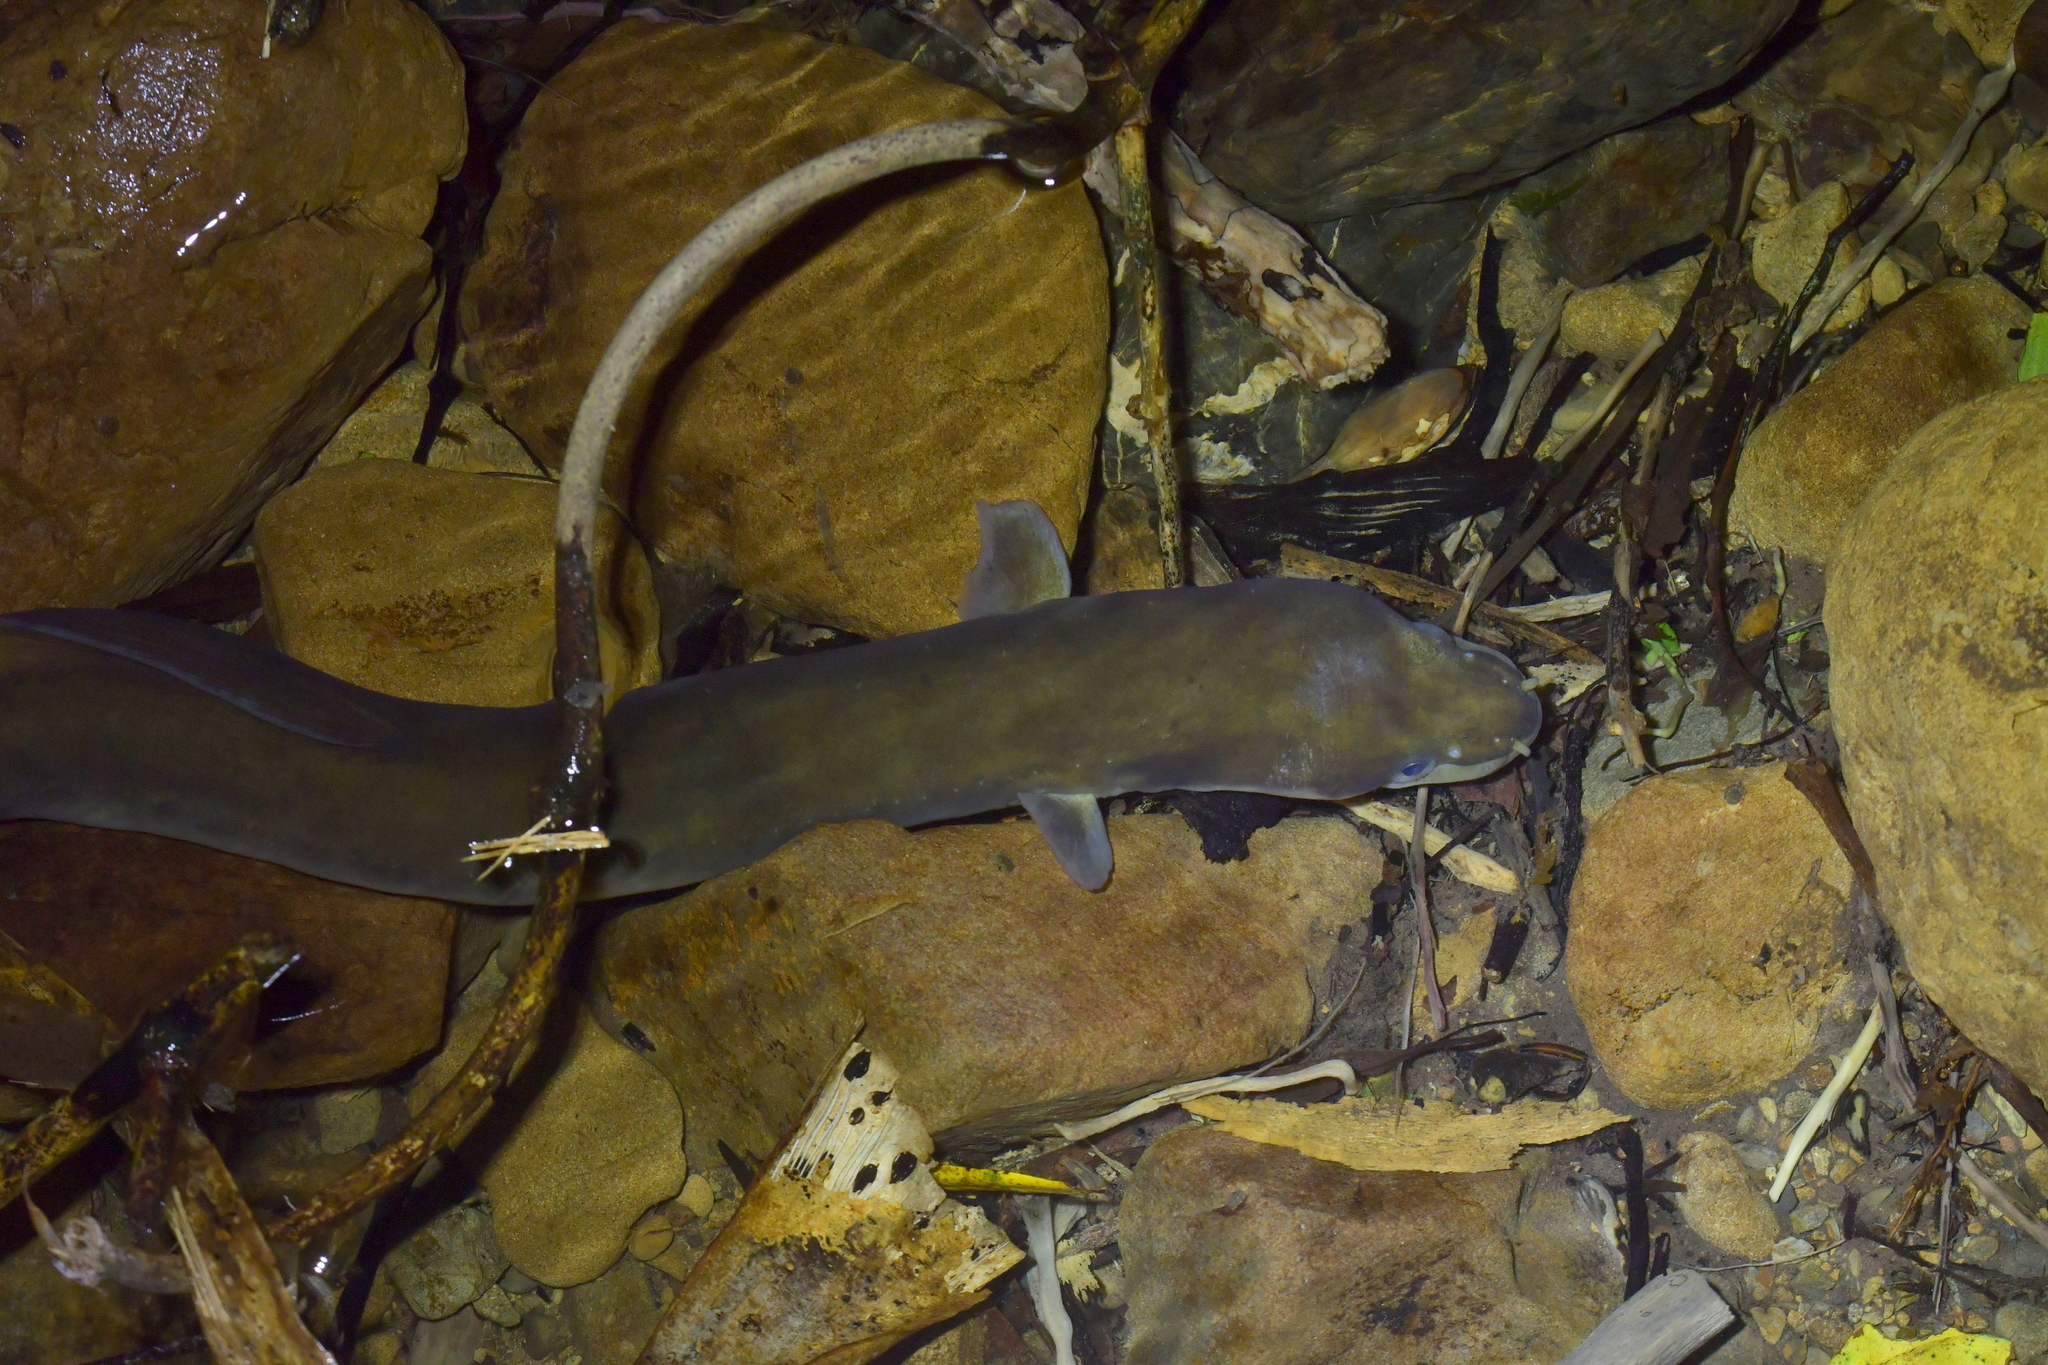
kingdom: Animalia
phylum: Chordata
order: Anguilliformes
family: Anguillidae
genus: Anguilla
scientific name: Anguilla dieffenbachii
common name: New zealand longfin eel
